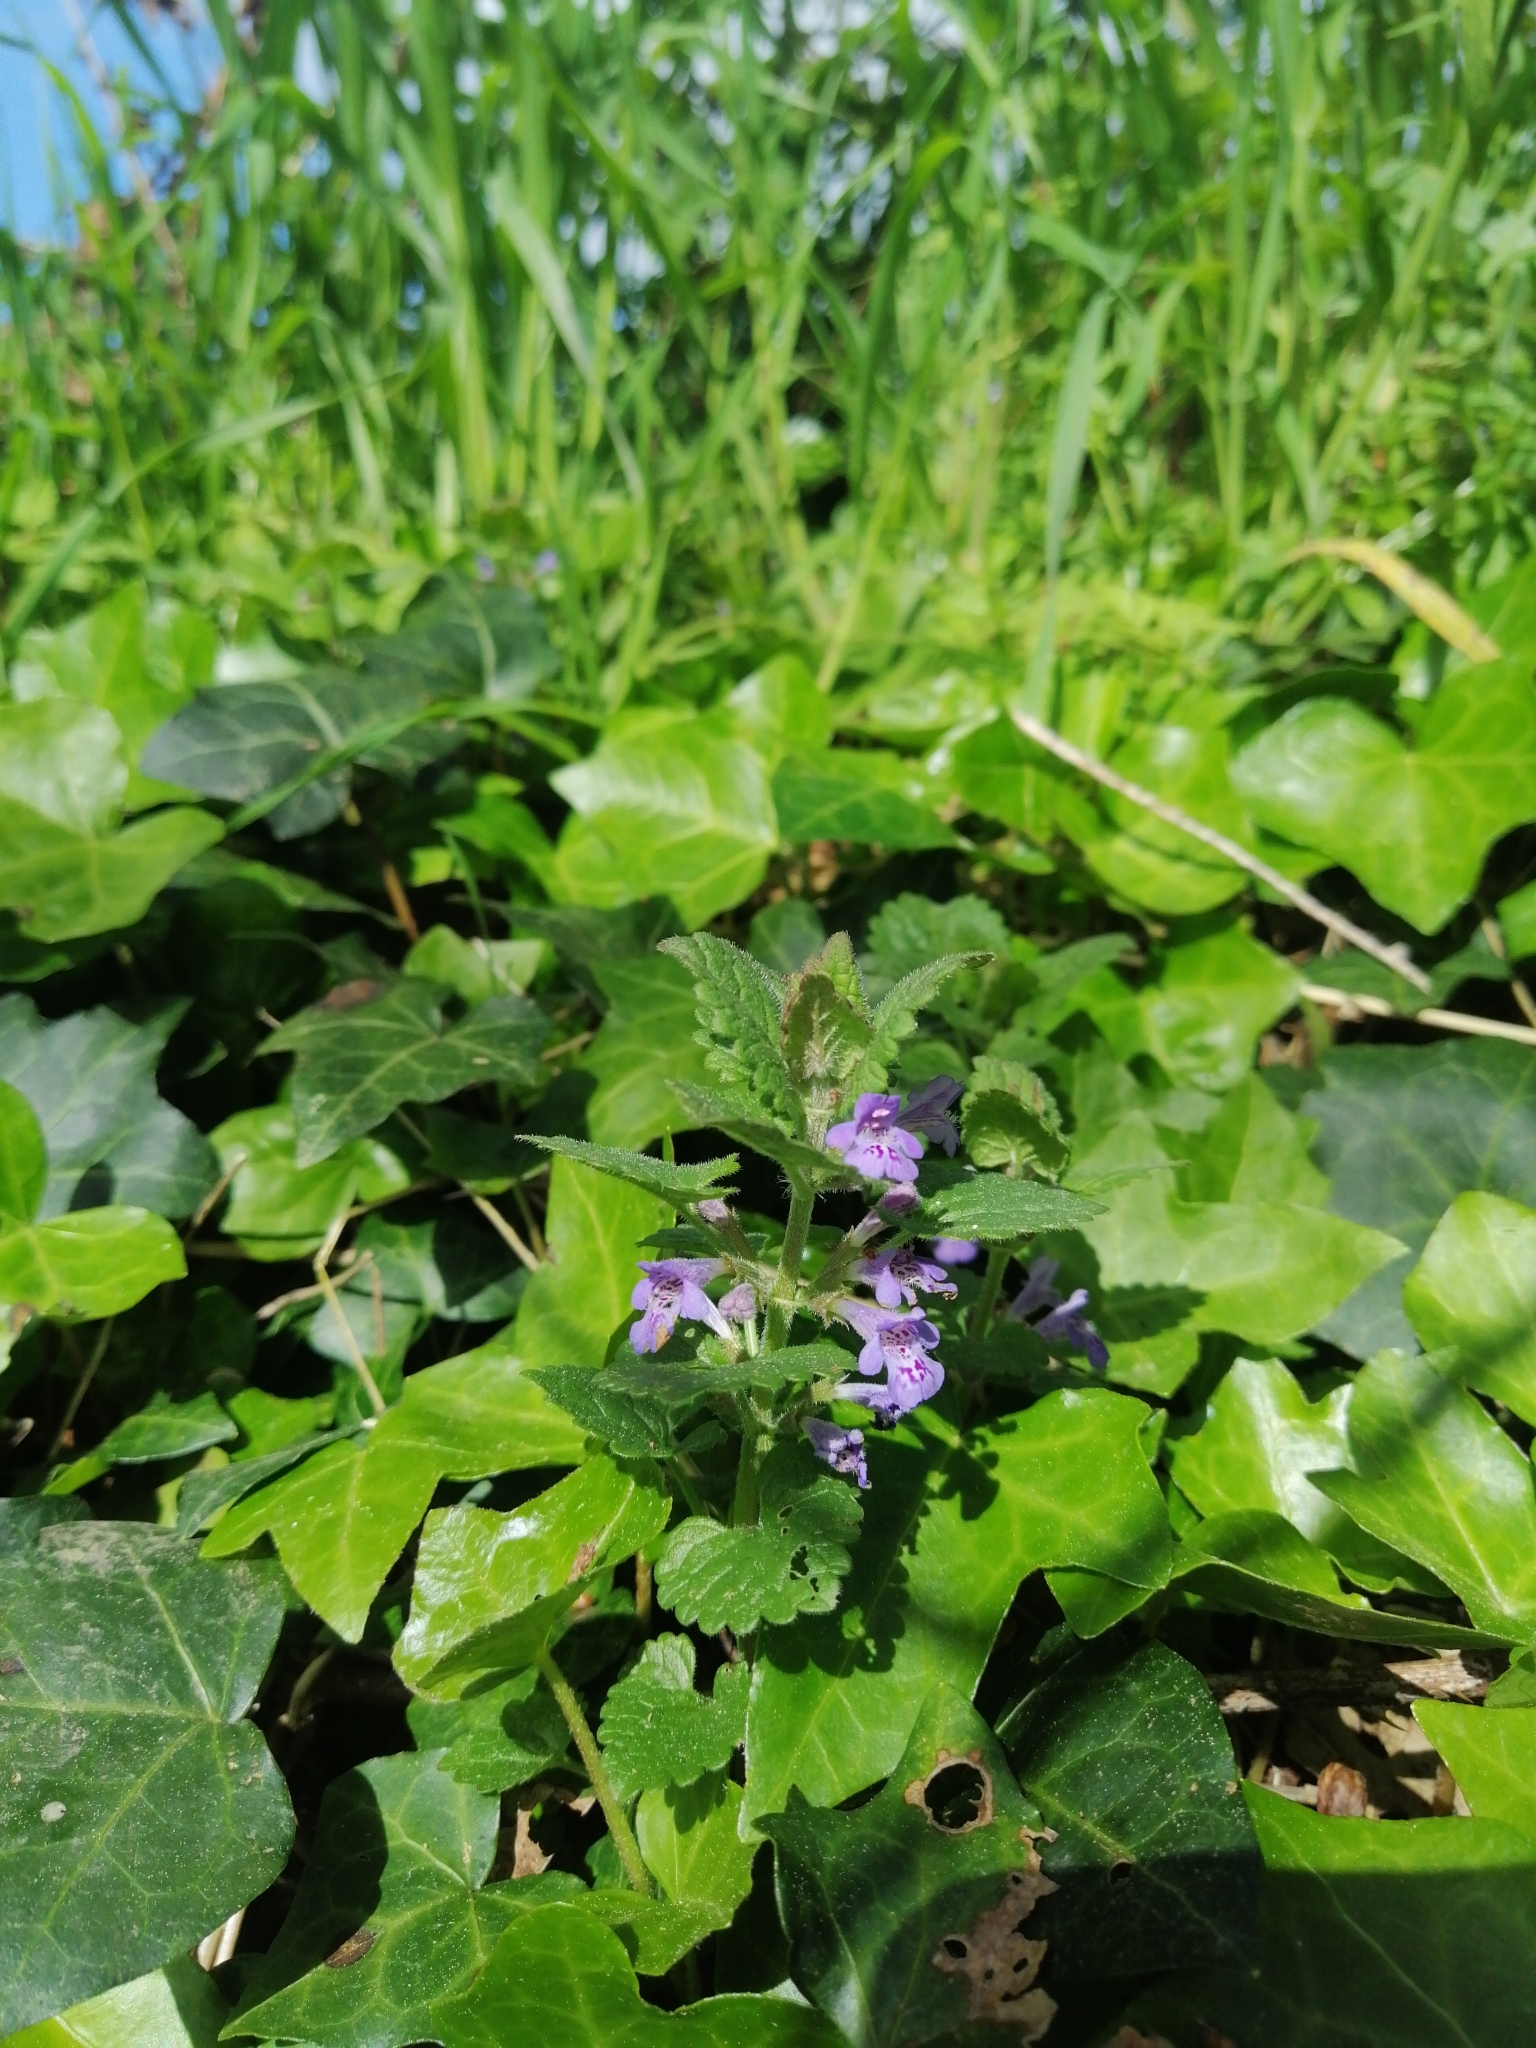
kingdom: Plantae
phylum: Tracheophyta
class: Magnoliopsida
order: Lamiales
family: Lamiaceae
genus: Glechoma
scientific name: Glechoma hederacea
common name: Ground ivy
